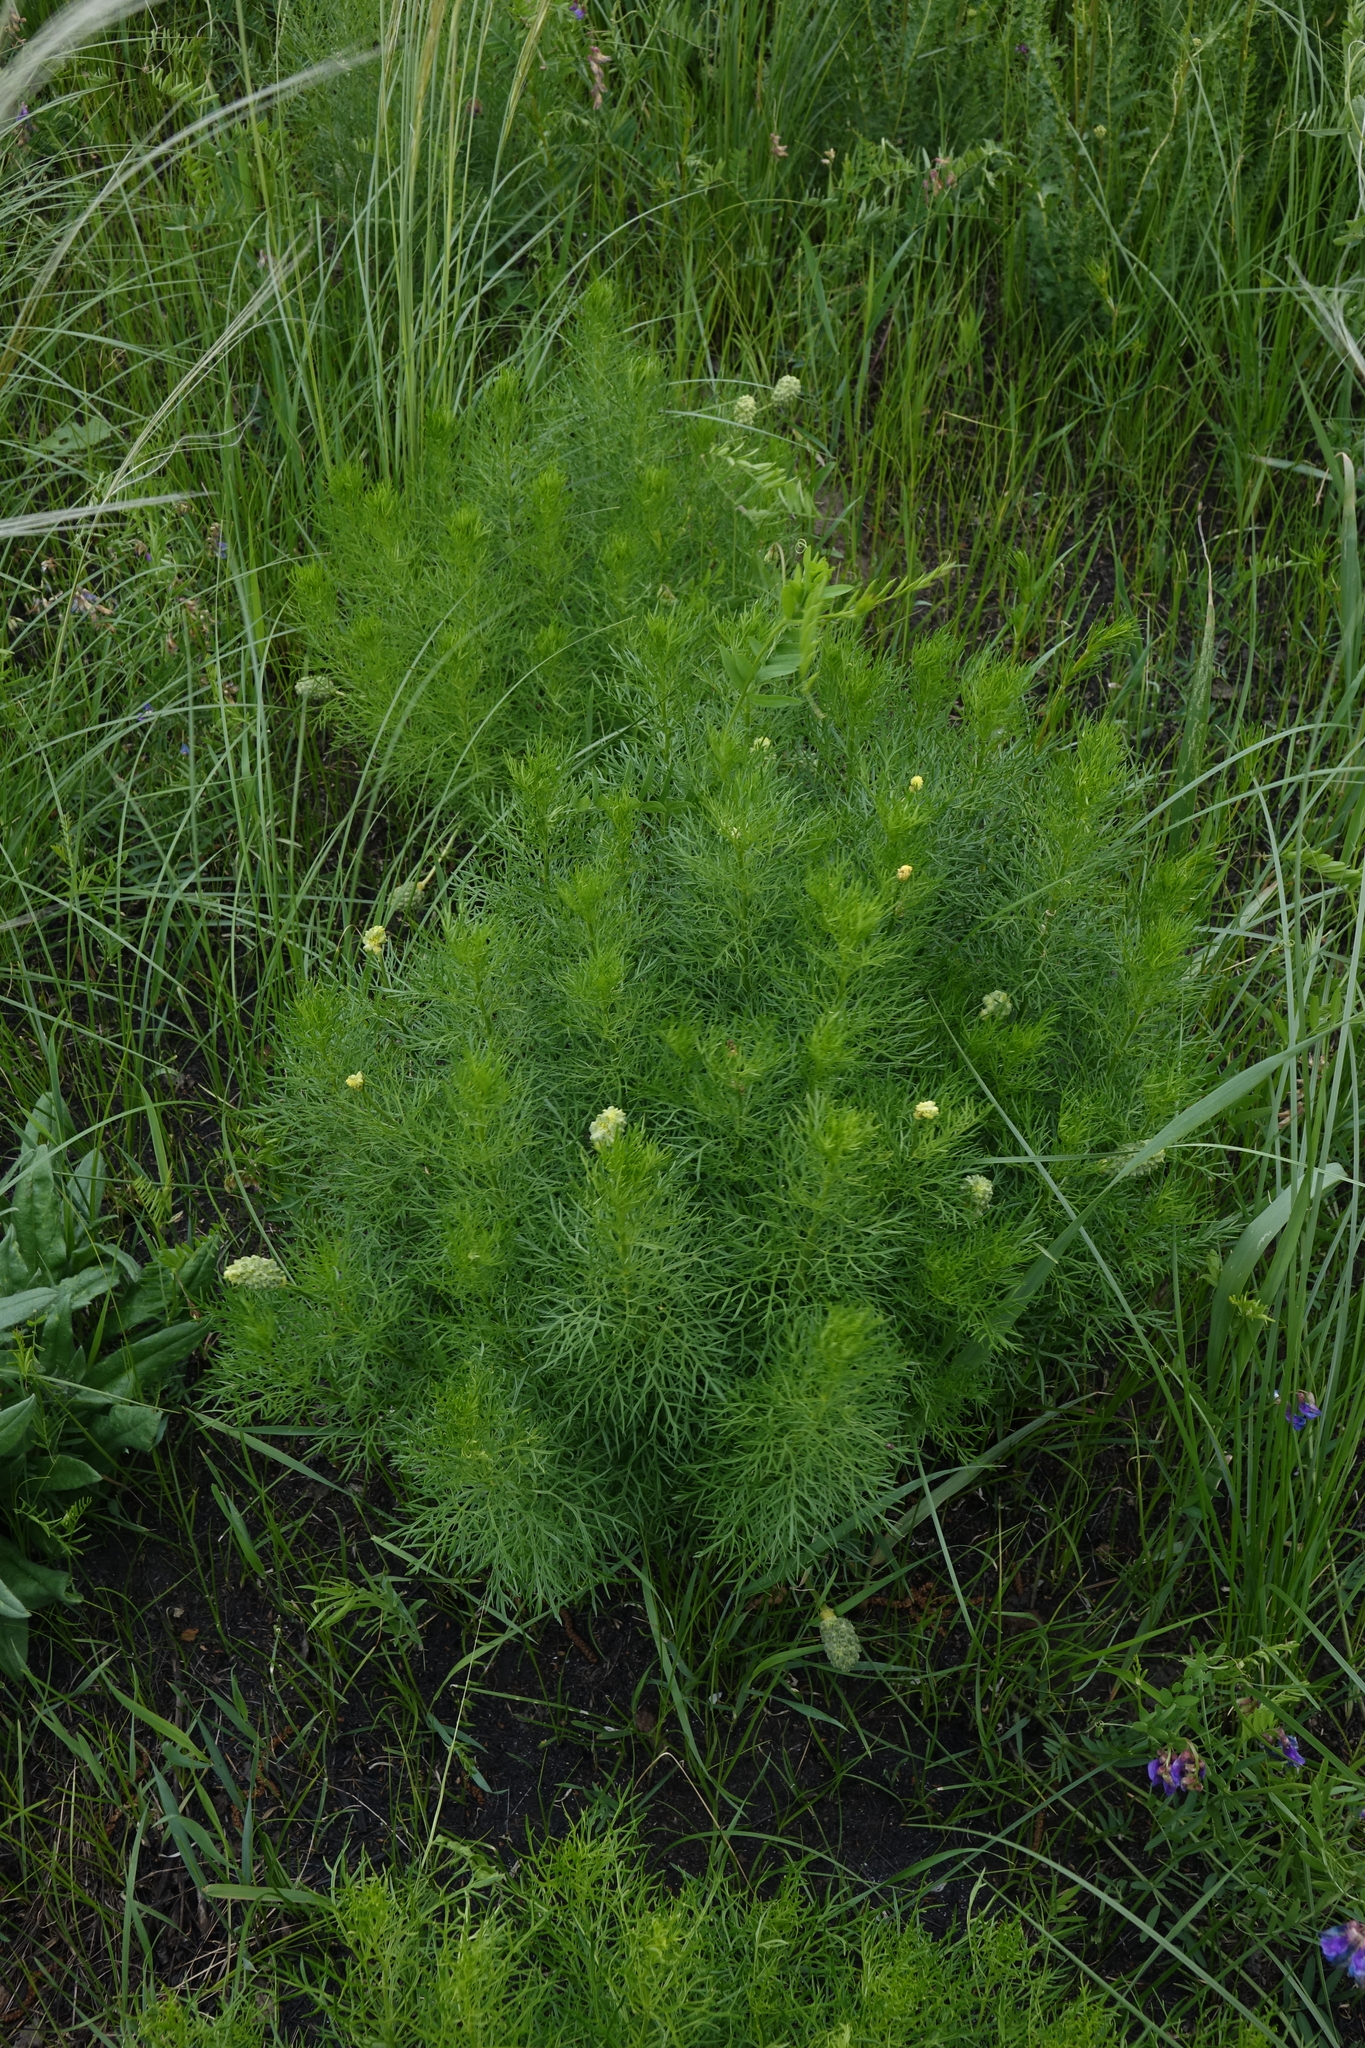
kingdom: Plantae
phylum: Tracheophyta
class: Magnoliopsida
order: Ranunculales
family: Ranunculaceae
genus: Adonis
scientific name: Adonis vernalis
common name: Yellow pheasants-eye
